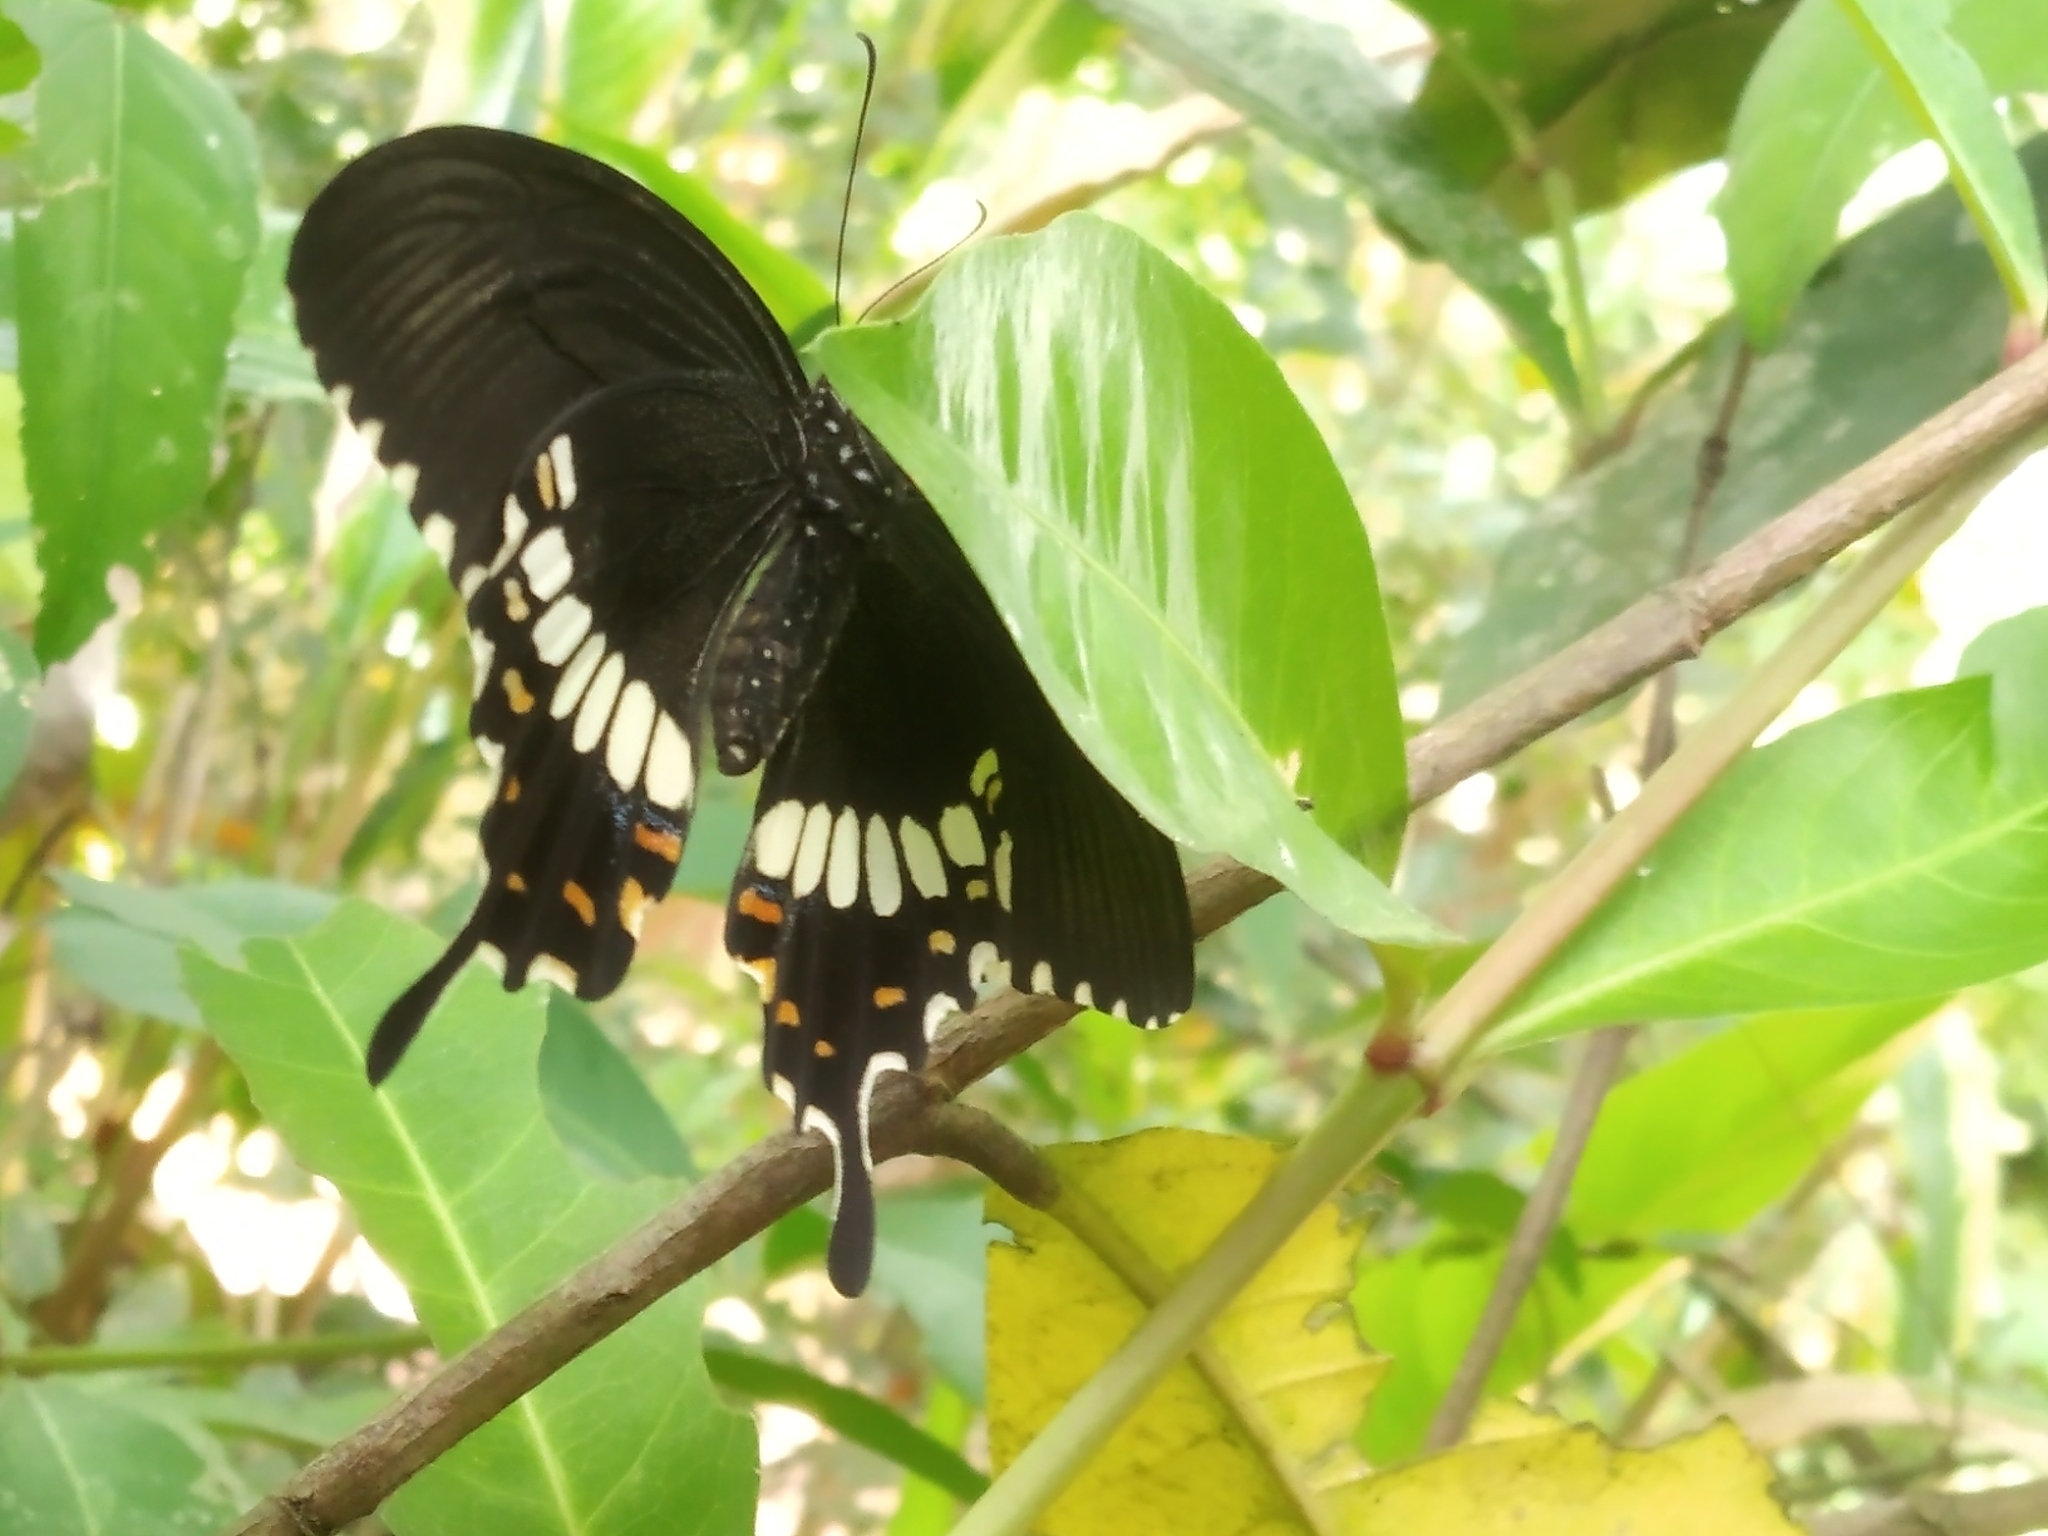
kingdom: Animalia
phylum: Arthropoda
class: Insecta
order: Lepidoptera
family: Papilionidae
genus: Papilio
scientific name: Papilio polytes
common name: Common mormon
